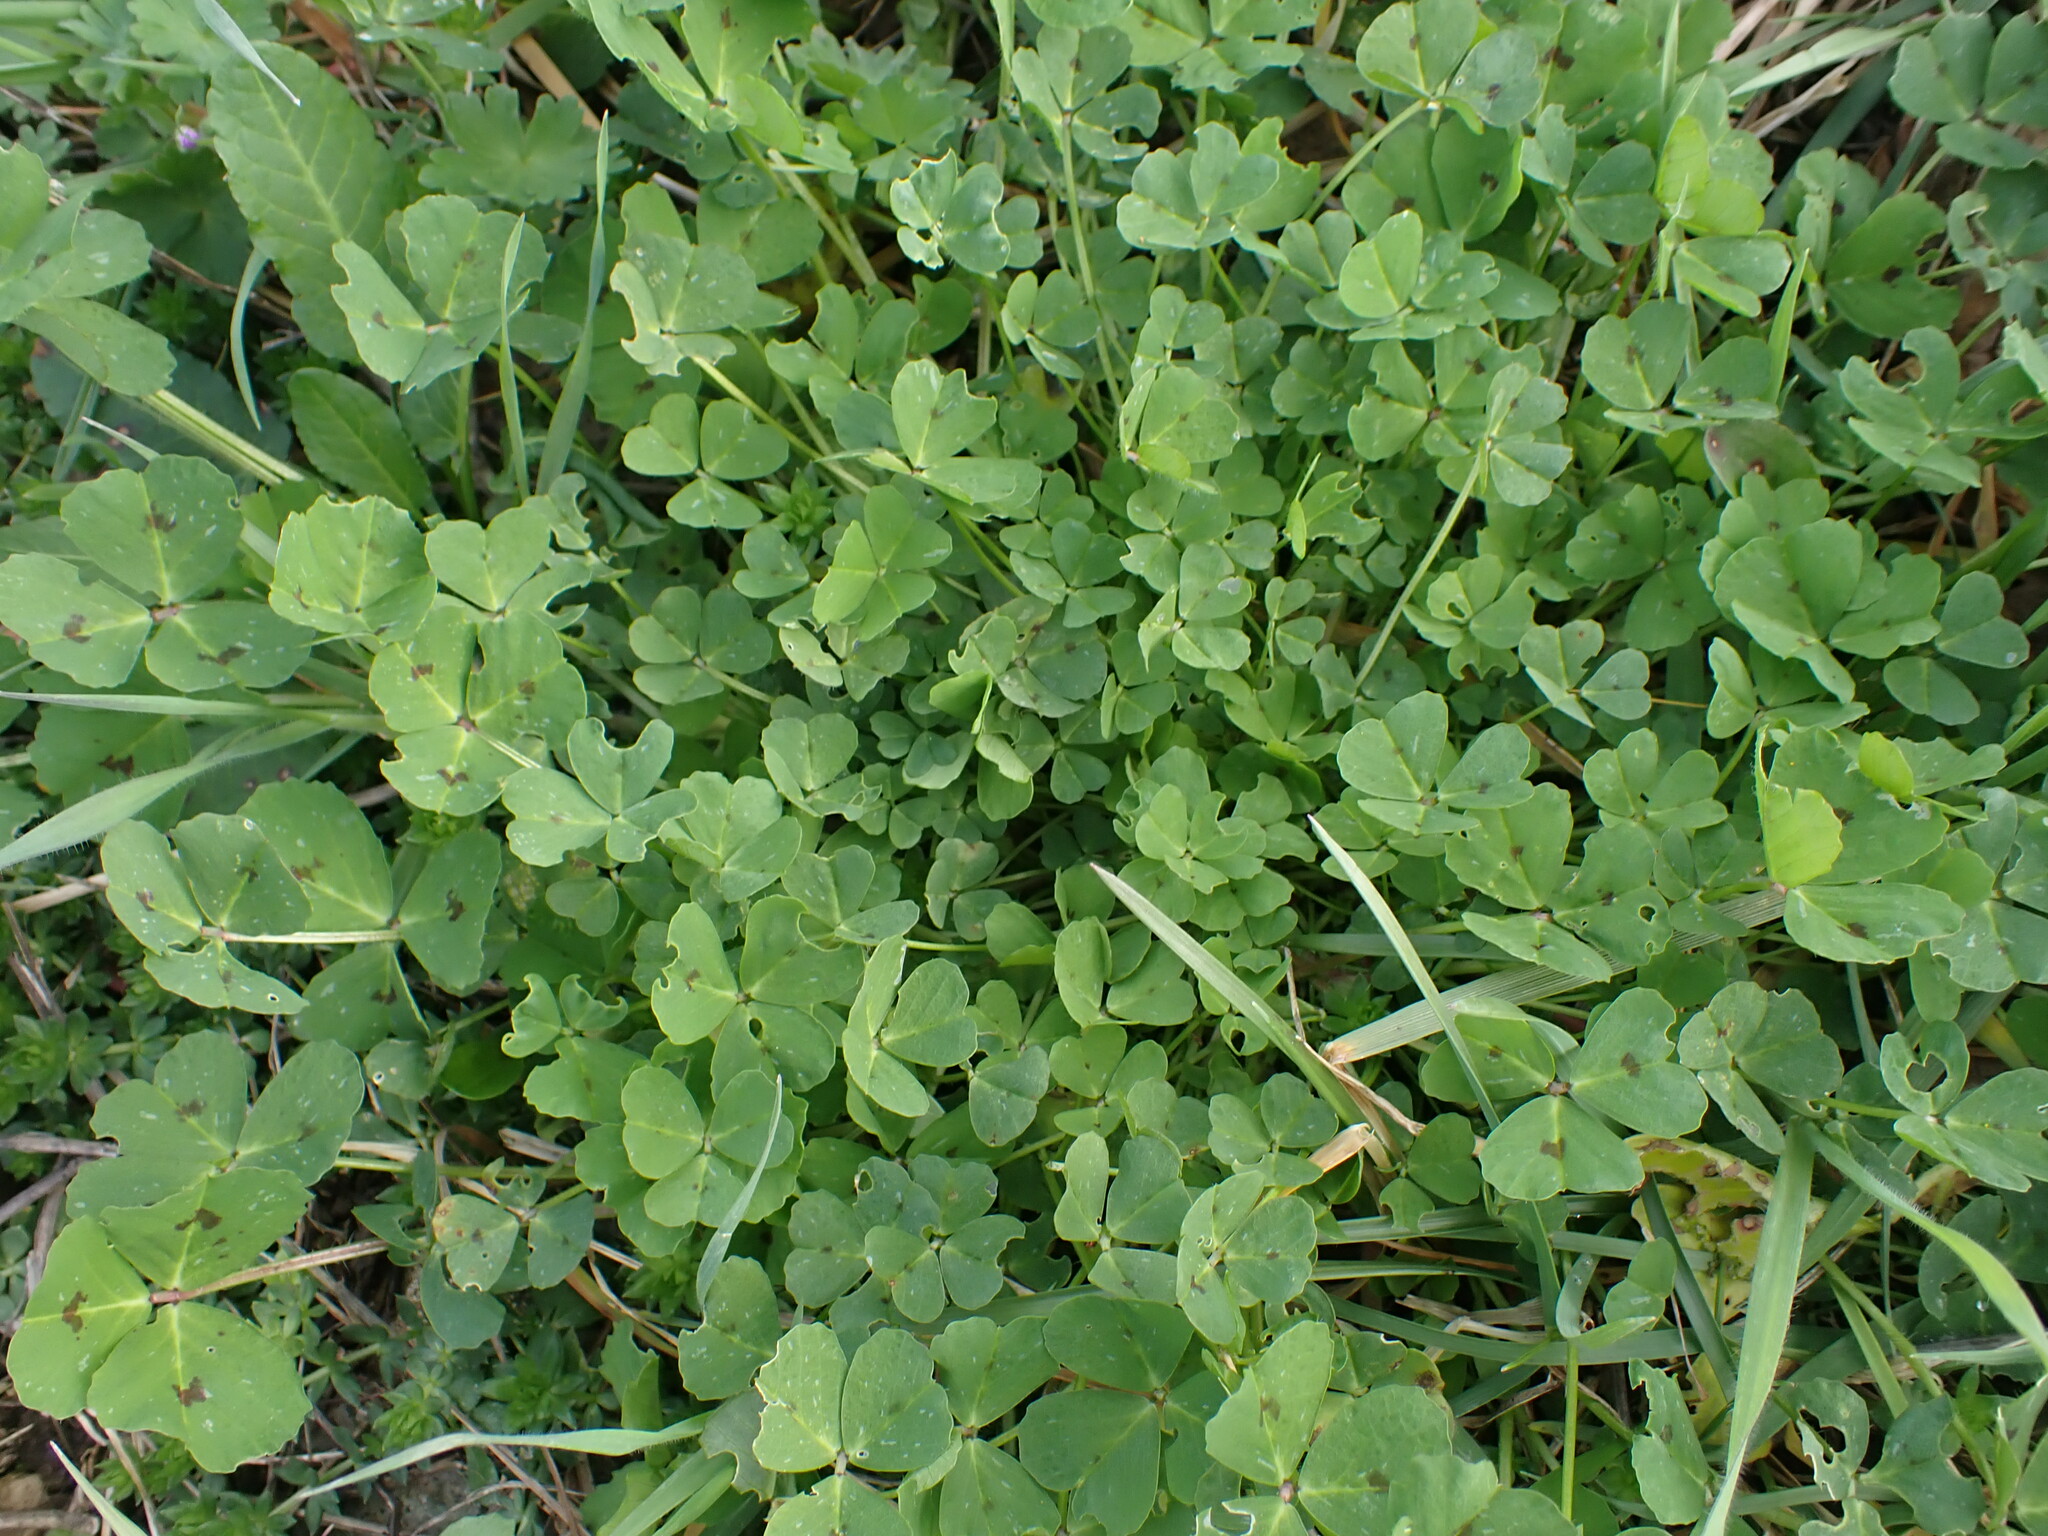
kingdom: Plantae
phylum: Tracheophyta
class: Magnoliopsida
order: Fabales
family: Fabaceae
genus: Medicago
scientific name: Medicago arabica
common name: Spotted medick
